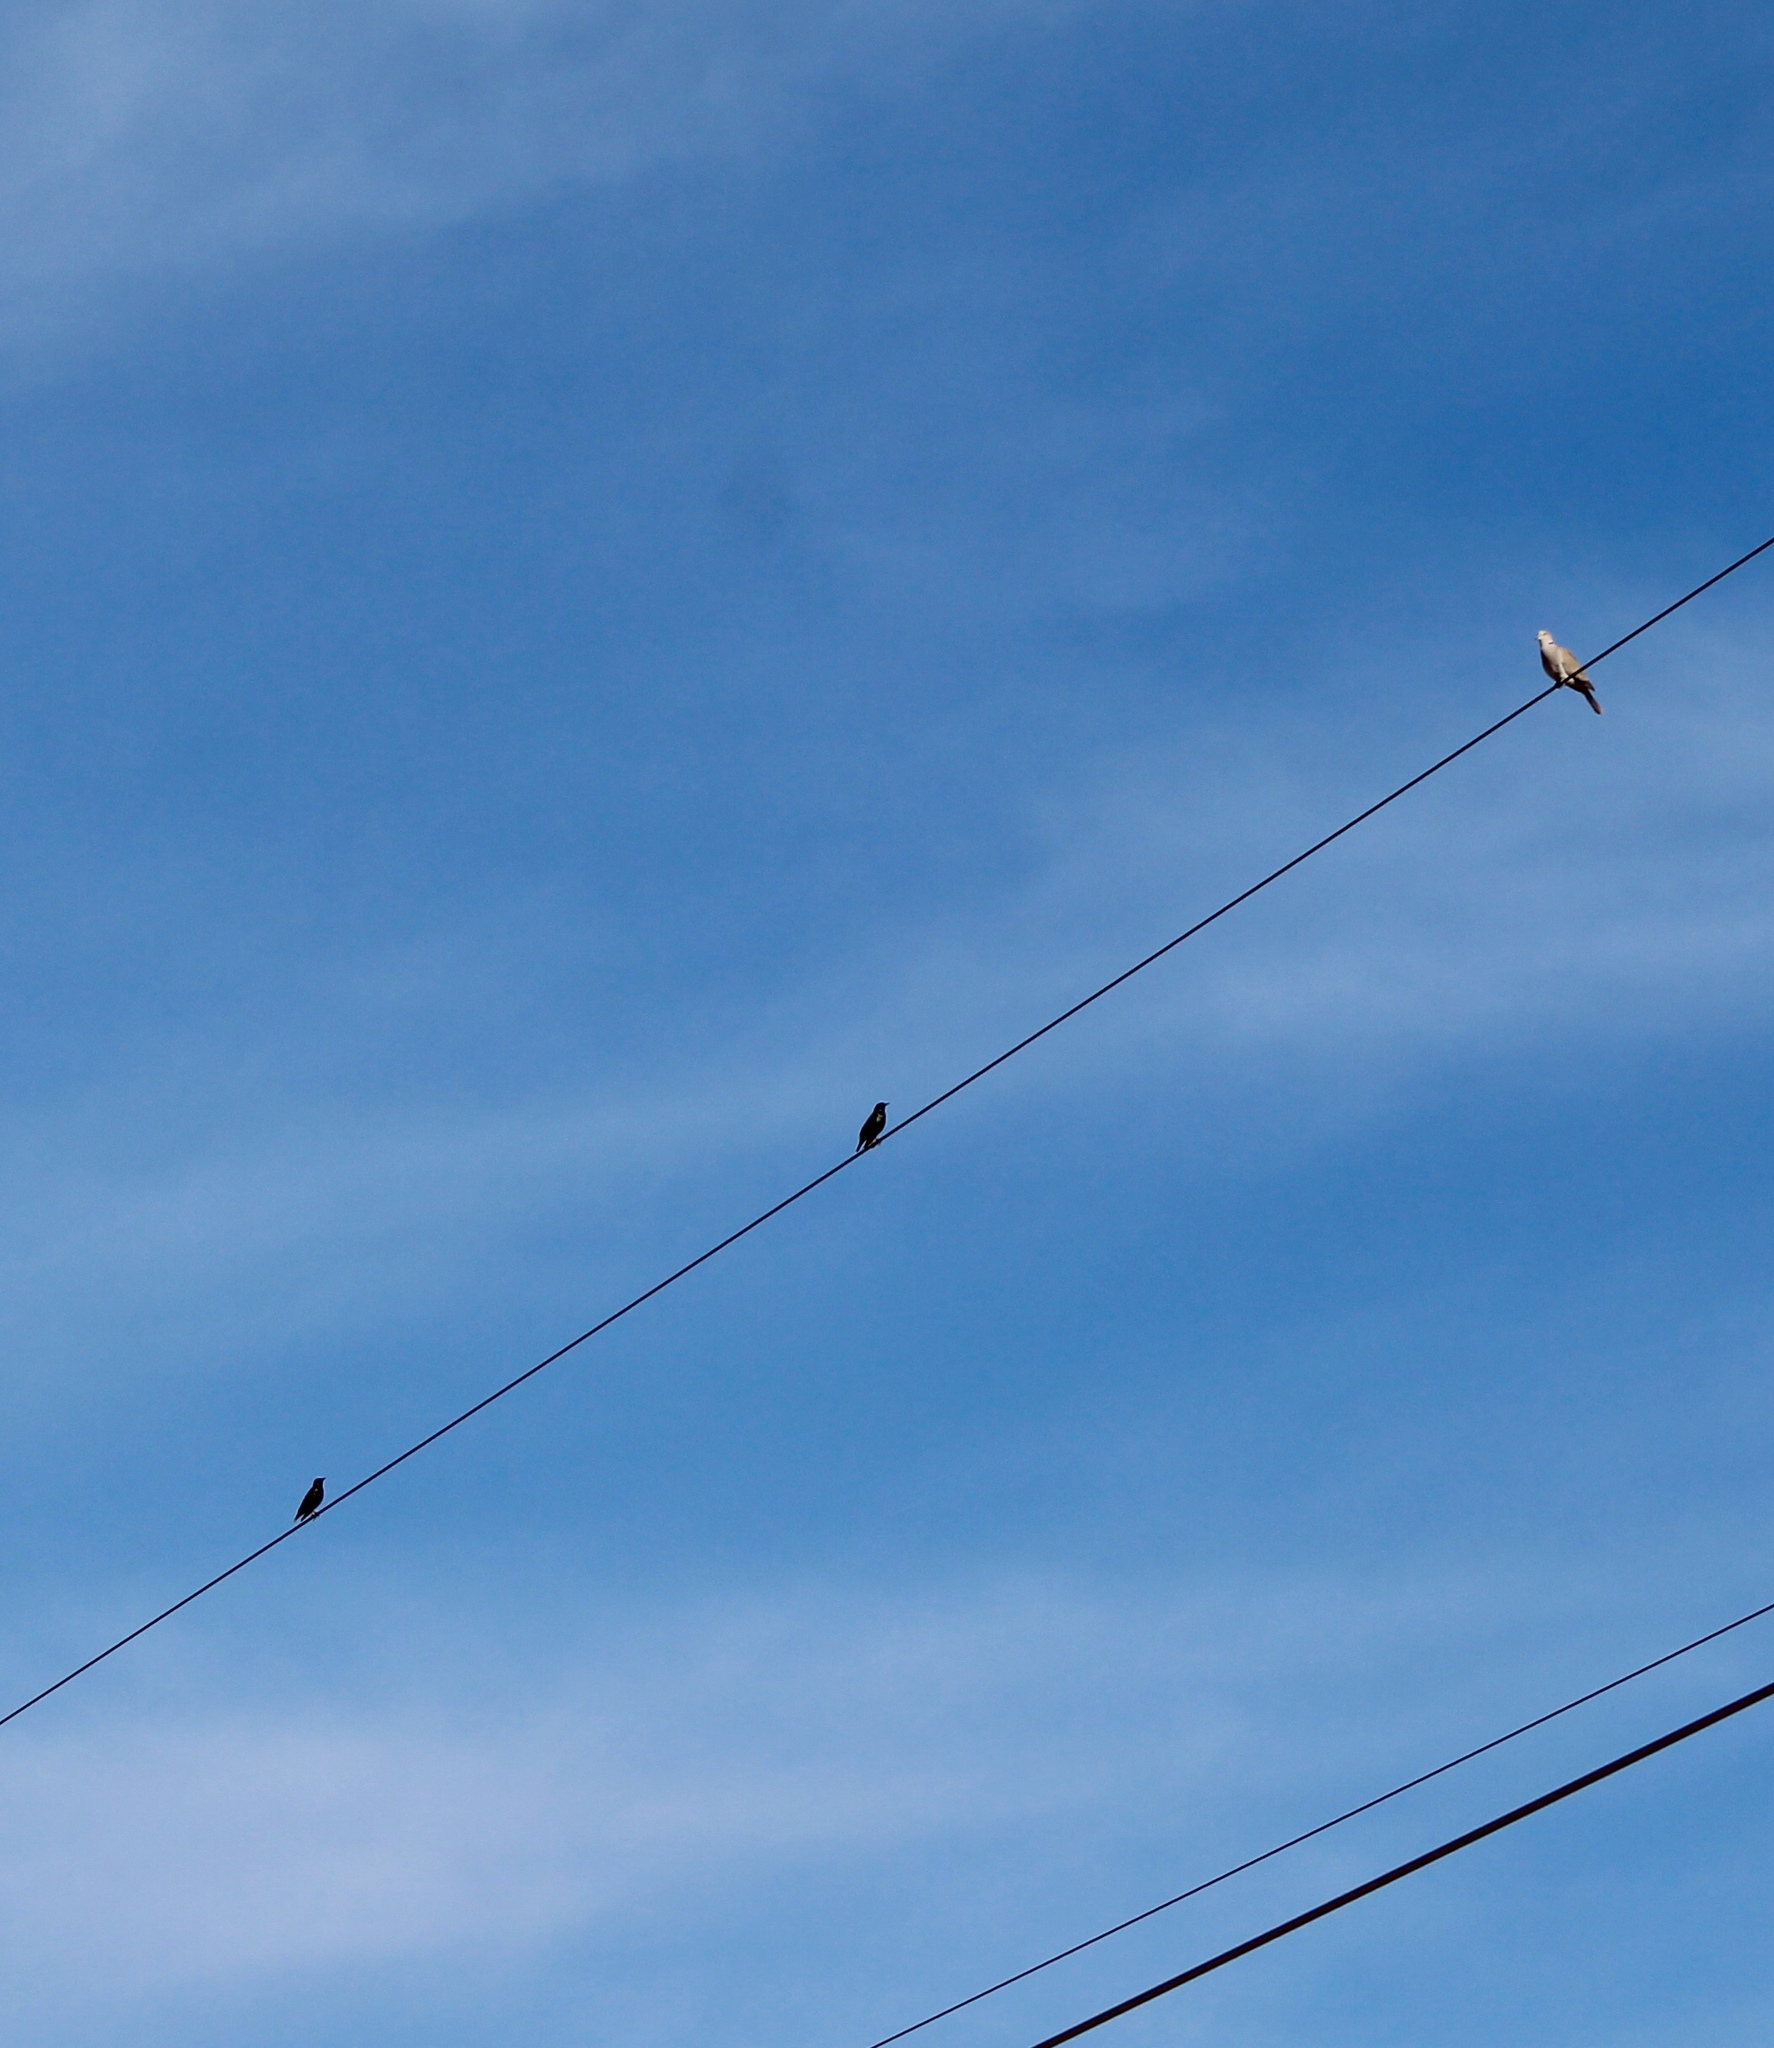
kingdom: Animalia
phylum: Chordata
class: Aves
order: Columbiformes
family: Columbidae
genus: Streptopelia
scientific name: Streptopelia decaocto
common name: Eurasian collared dove
